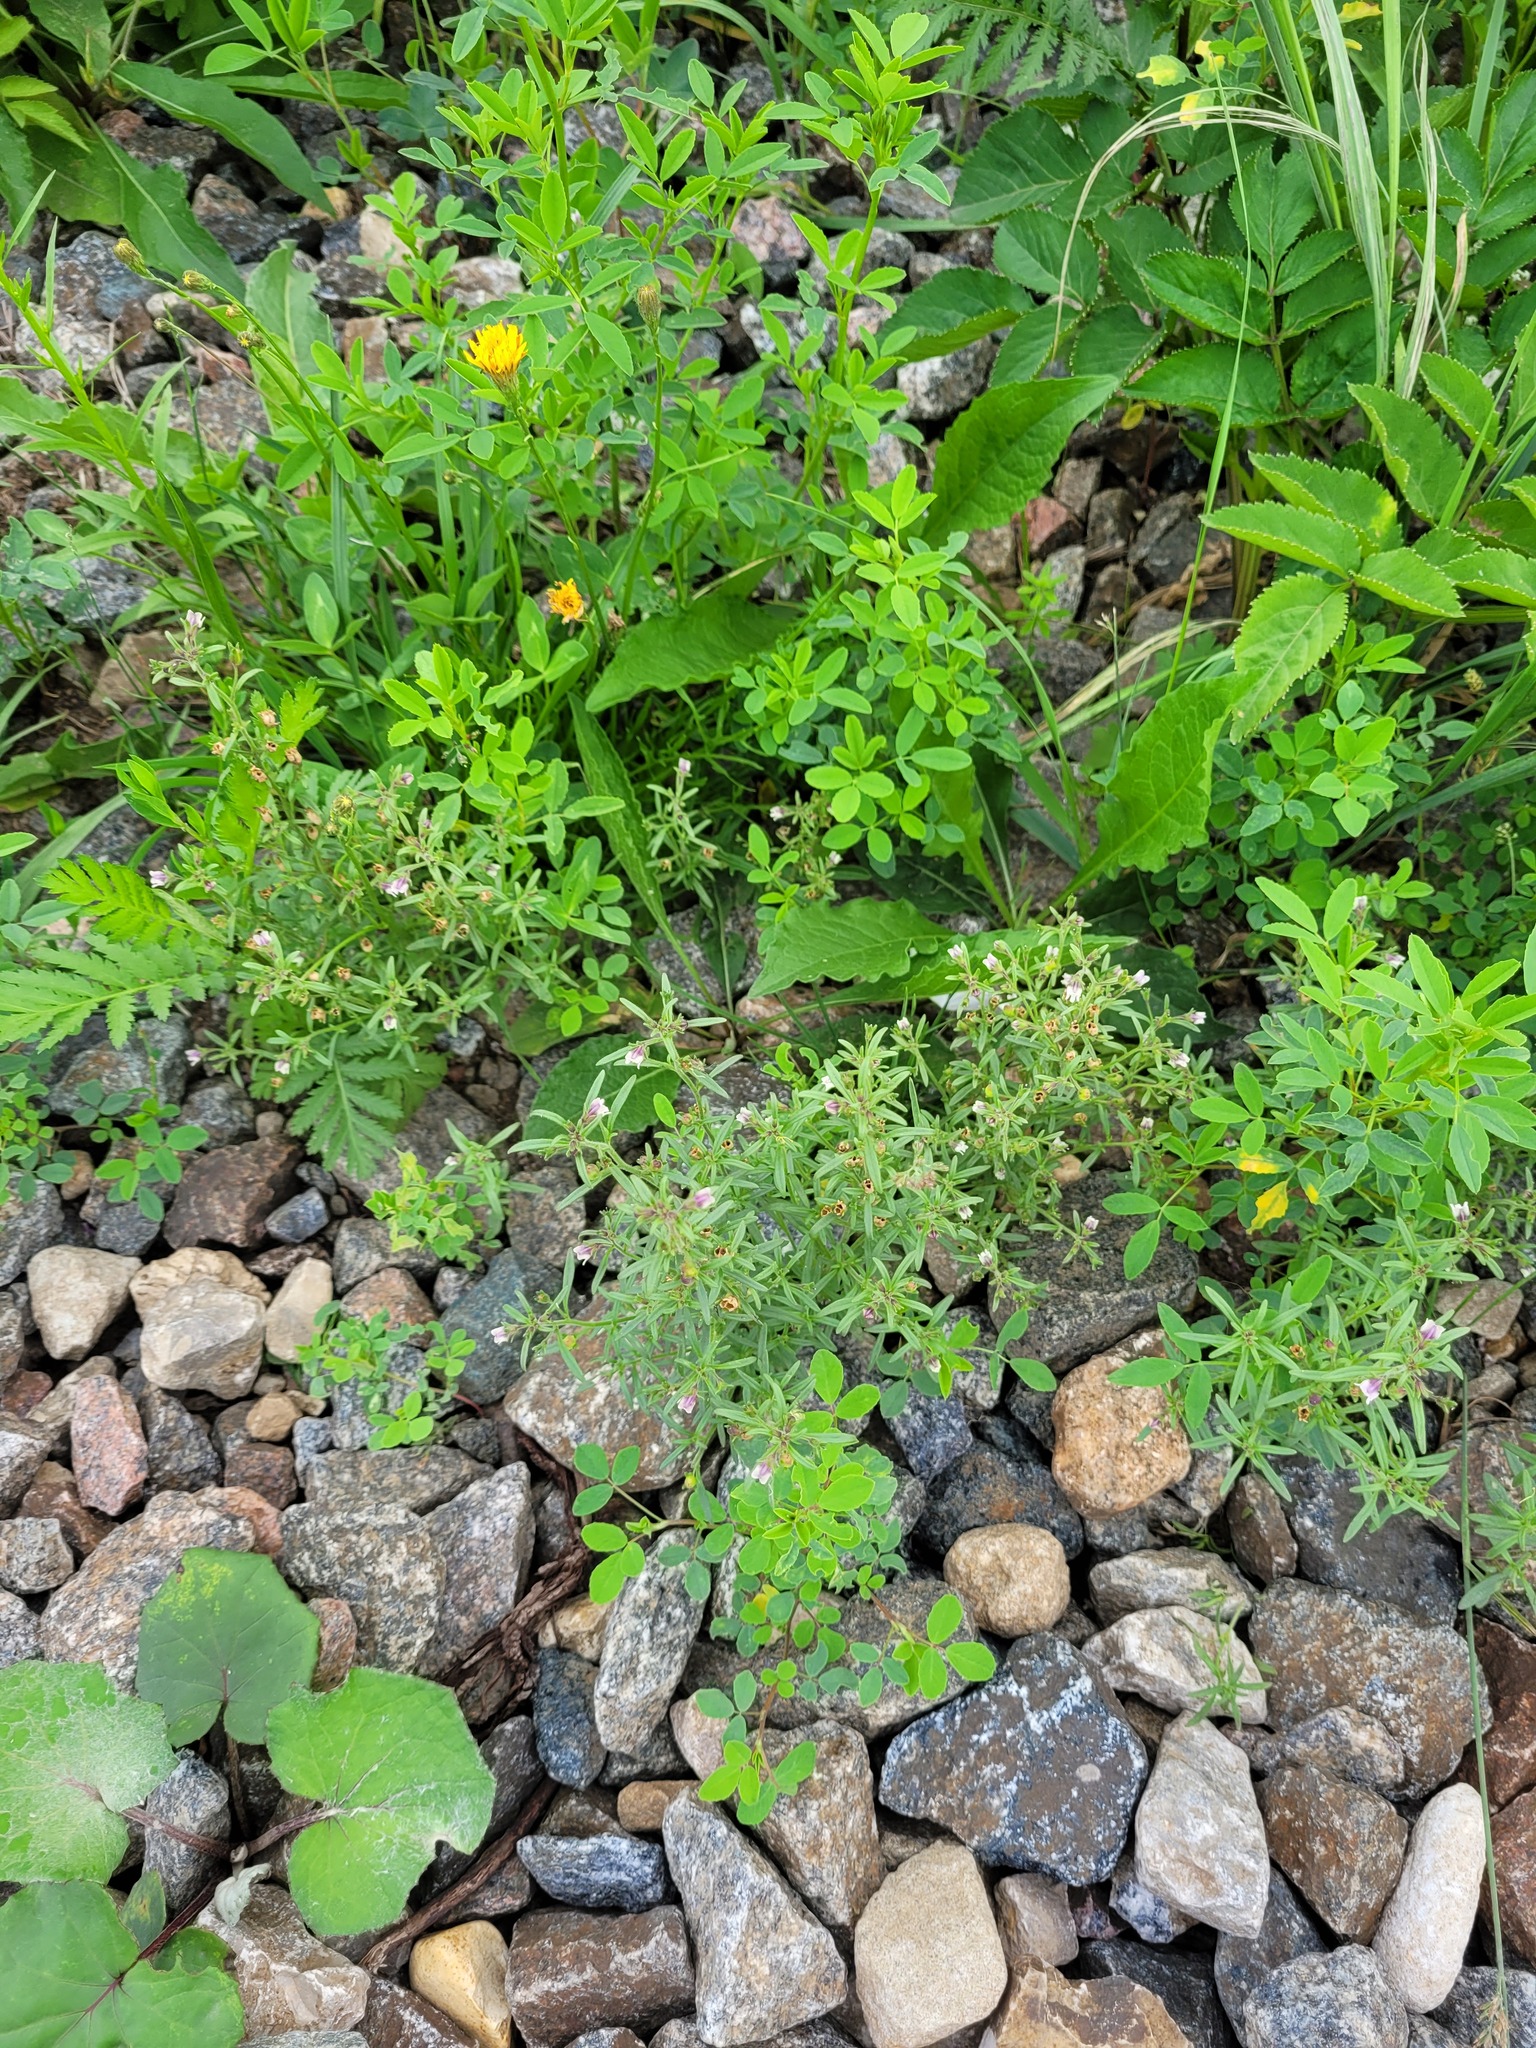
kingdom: Plantae
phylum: Tracheophyta
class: Magnoliopsida
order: Lamiales
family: Plantaginaceae
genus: Chaenorhinum
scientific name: Chaenorhinum minus
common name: Dwarf snapdragon
